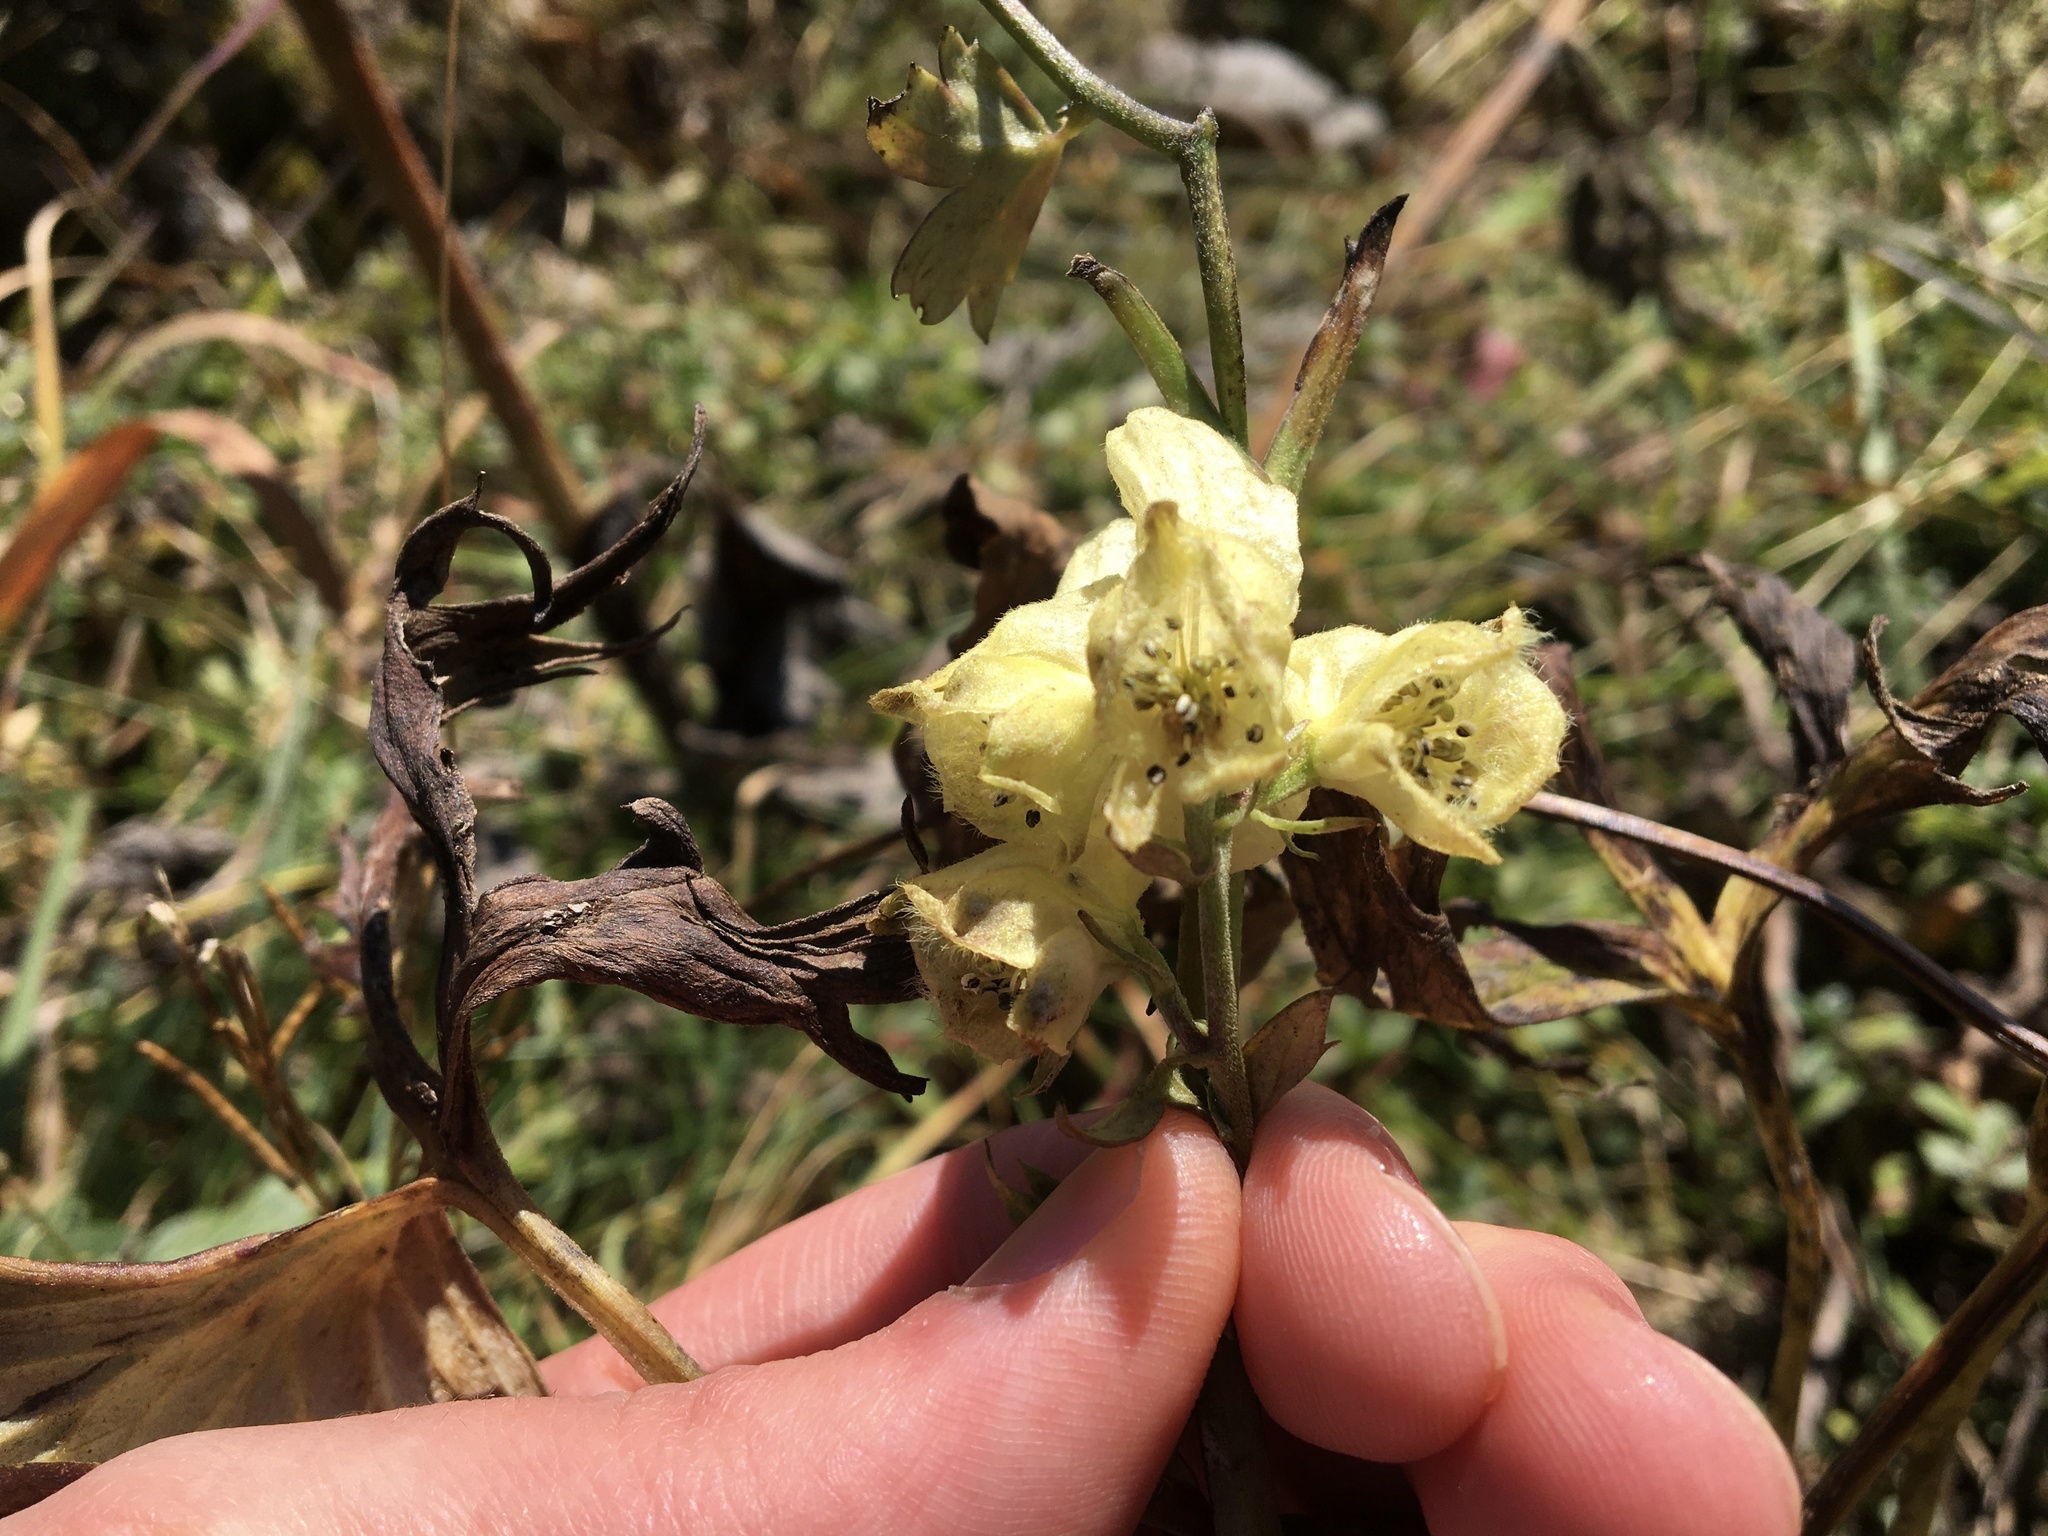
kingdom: Plantae
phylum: Tracheophyta
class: Magnoliopsida
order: Ranunculales
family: Ranunculaceae
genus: Aconitum
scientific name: Aconitum lycoctonum
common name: Wolf's-bane
